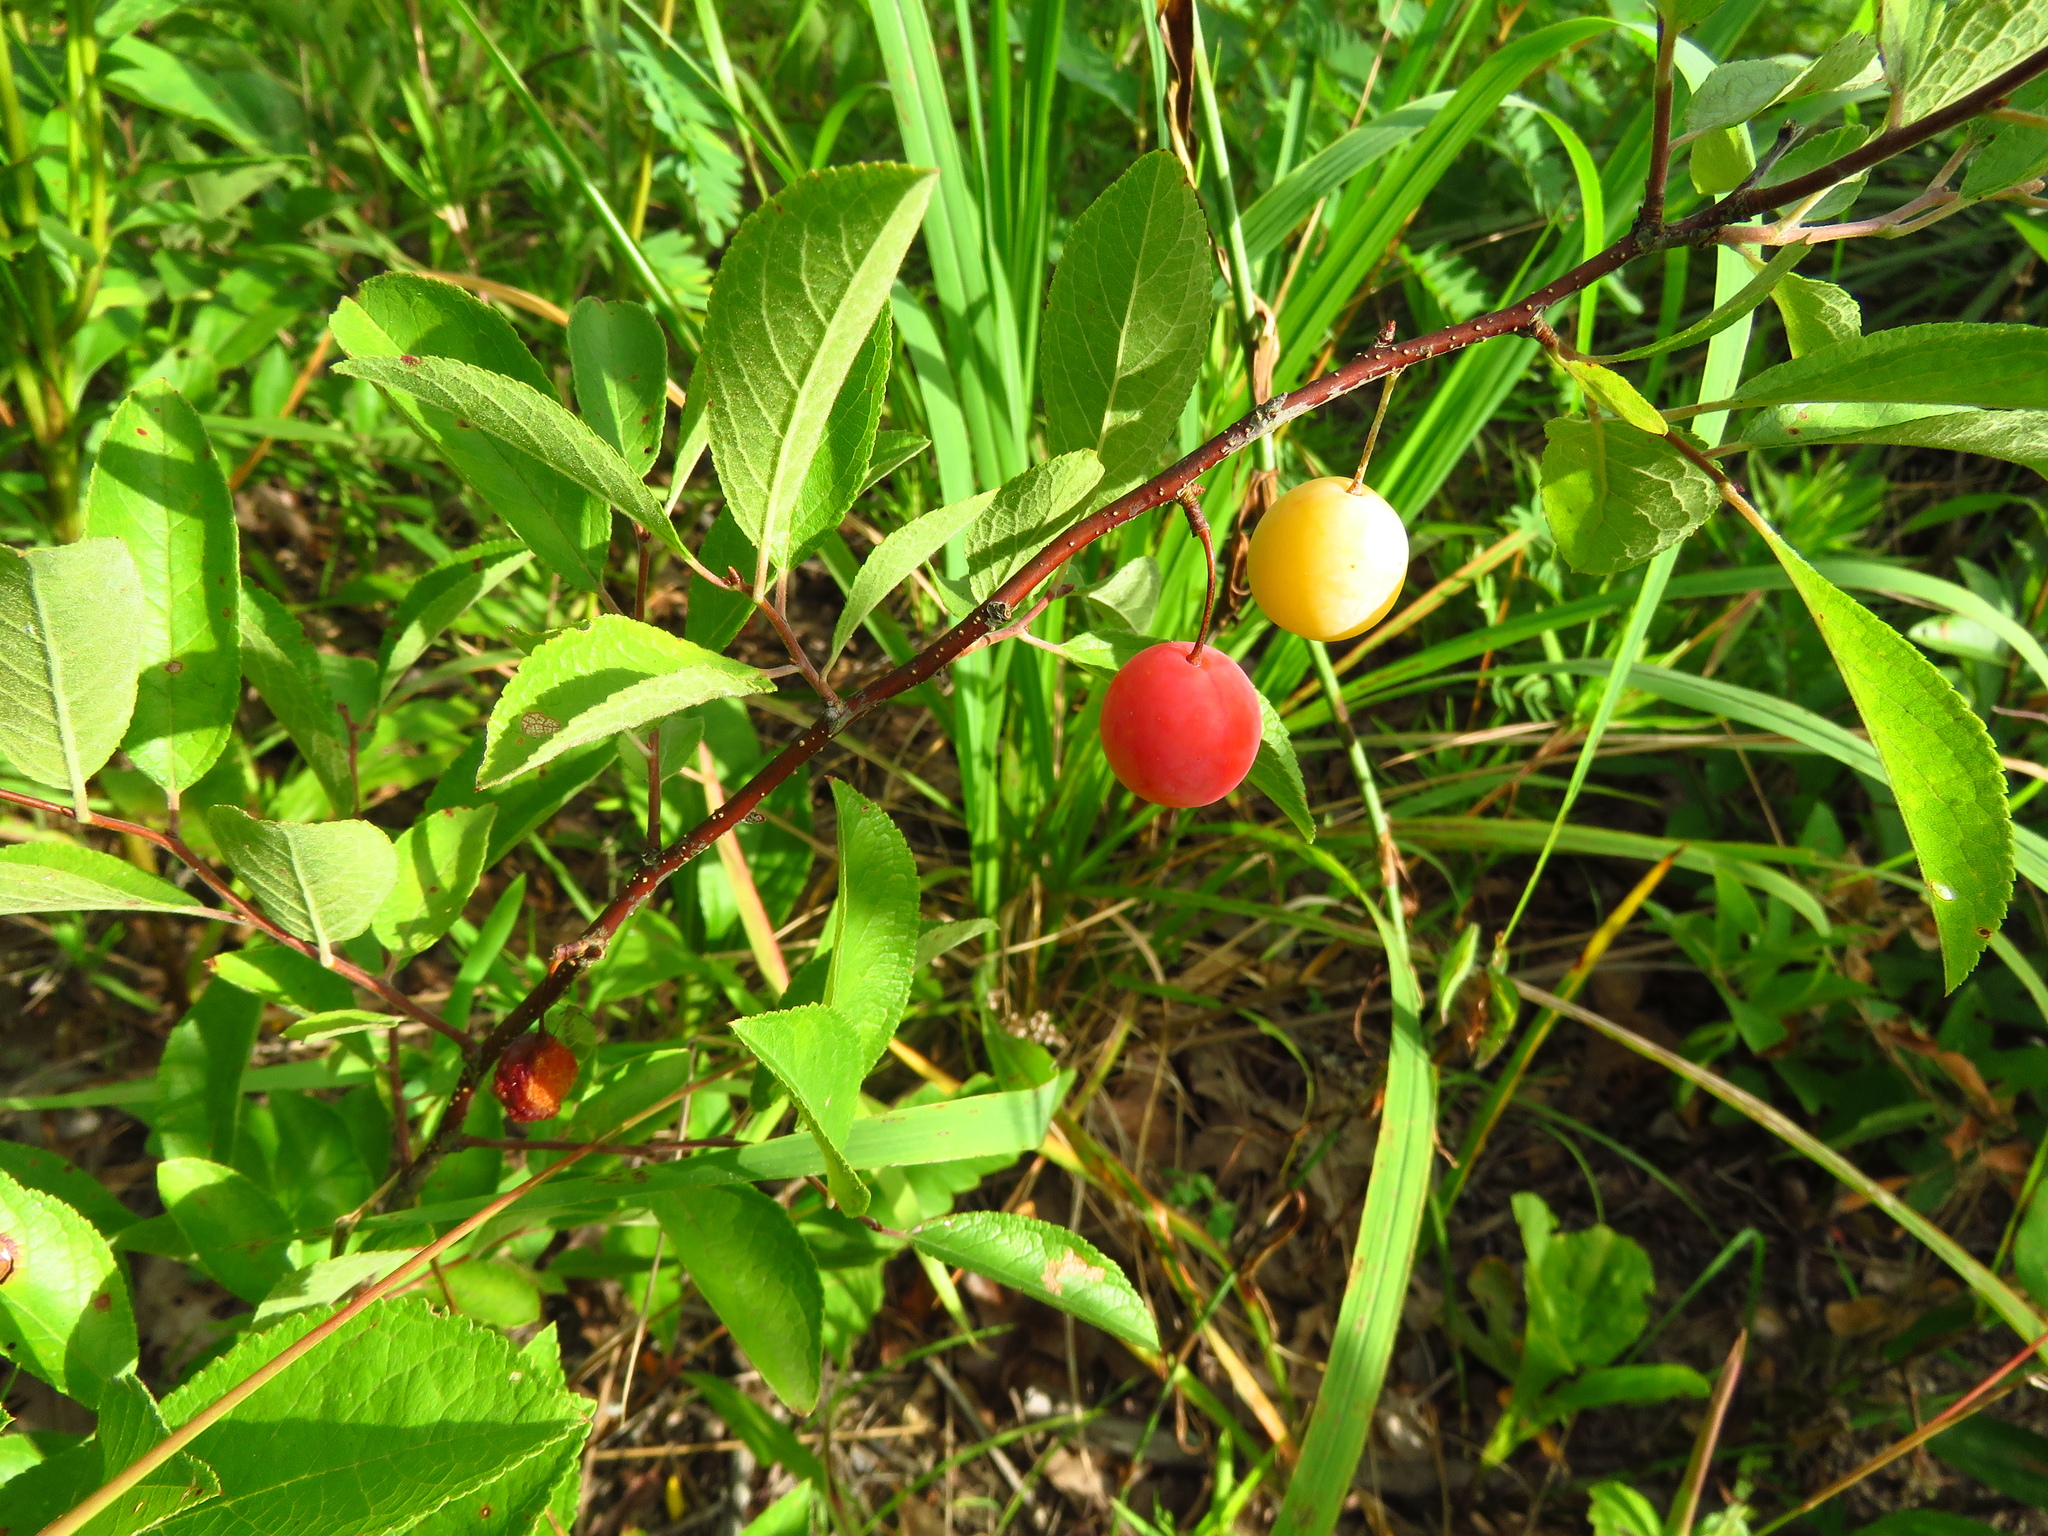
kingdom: Plantae
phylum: Tracheophyta
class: Magnoliopsida
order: Rosales
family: Rosaceae
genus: Prunus
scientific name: Prunus angustifolia
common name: Cherokee plum
